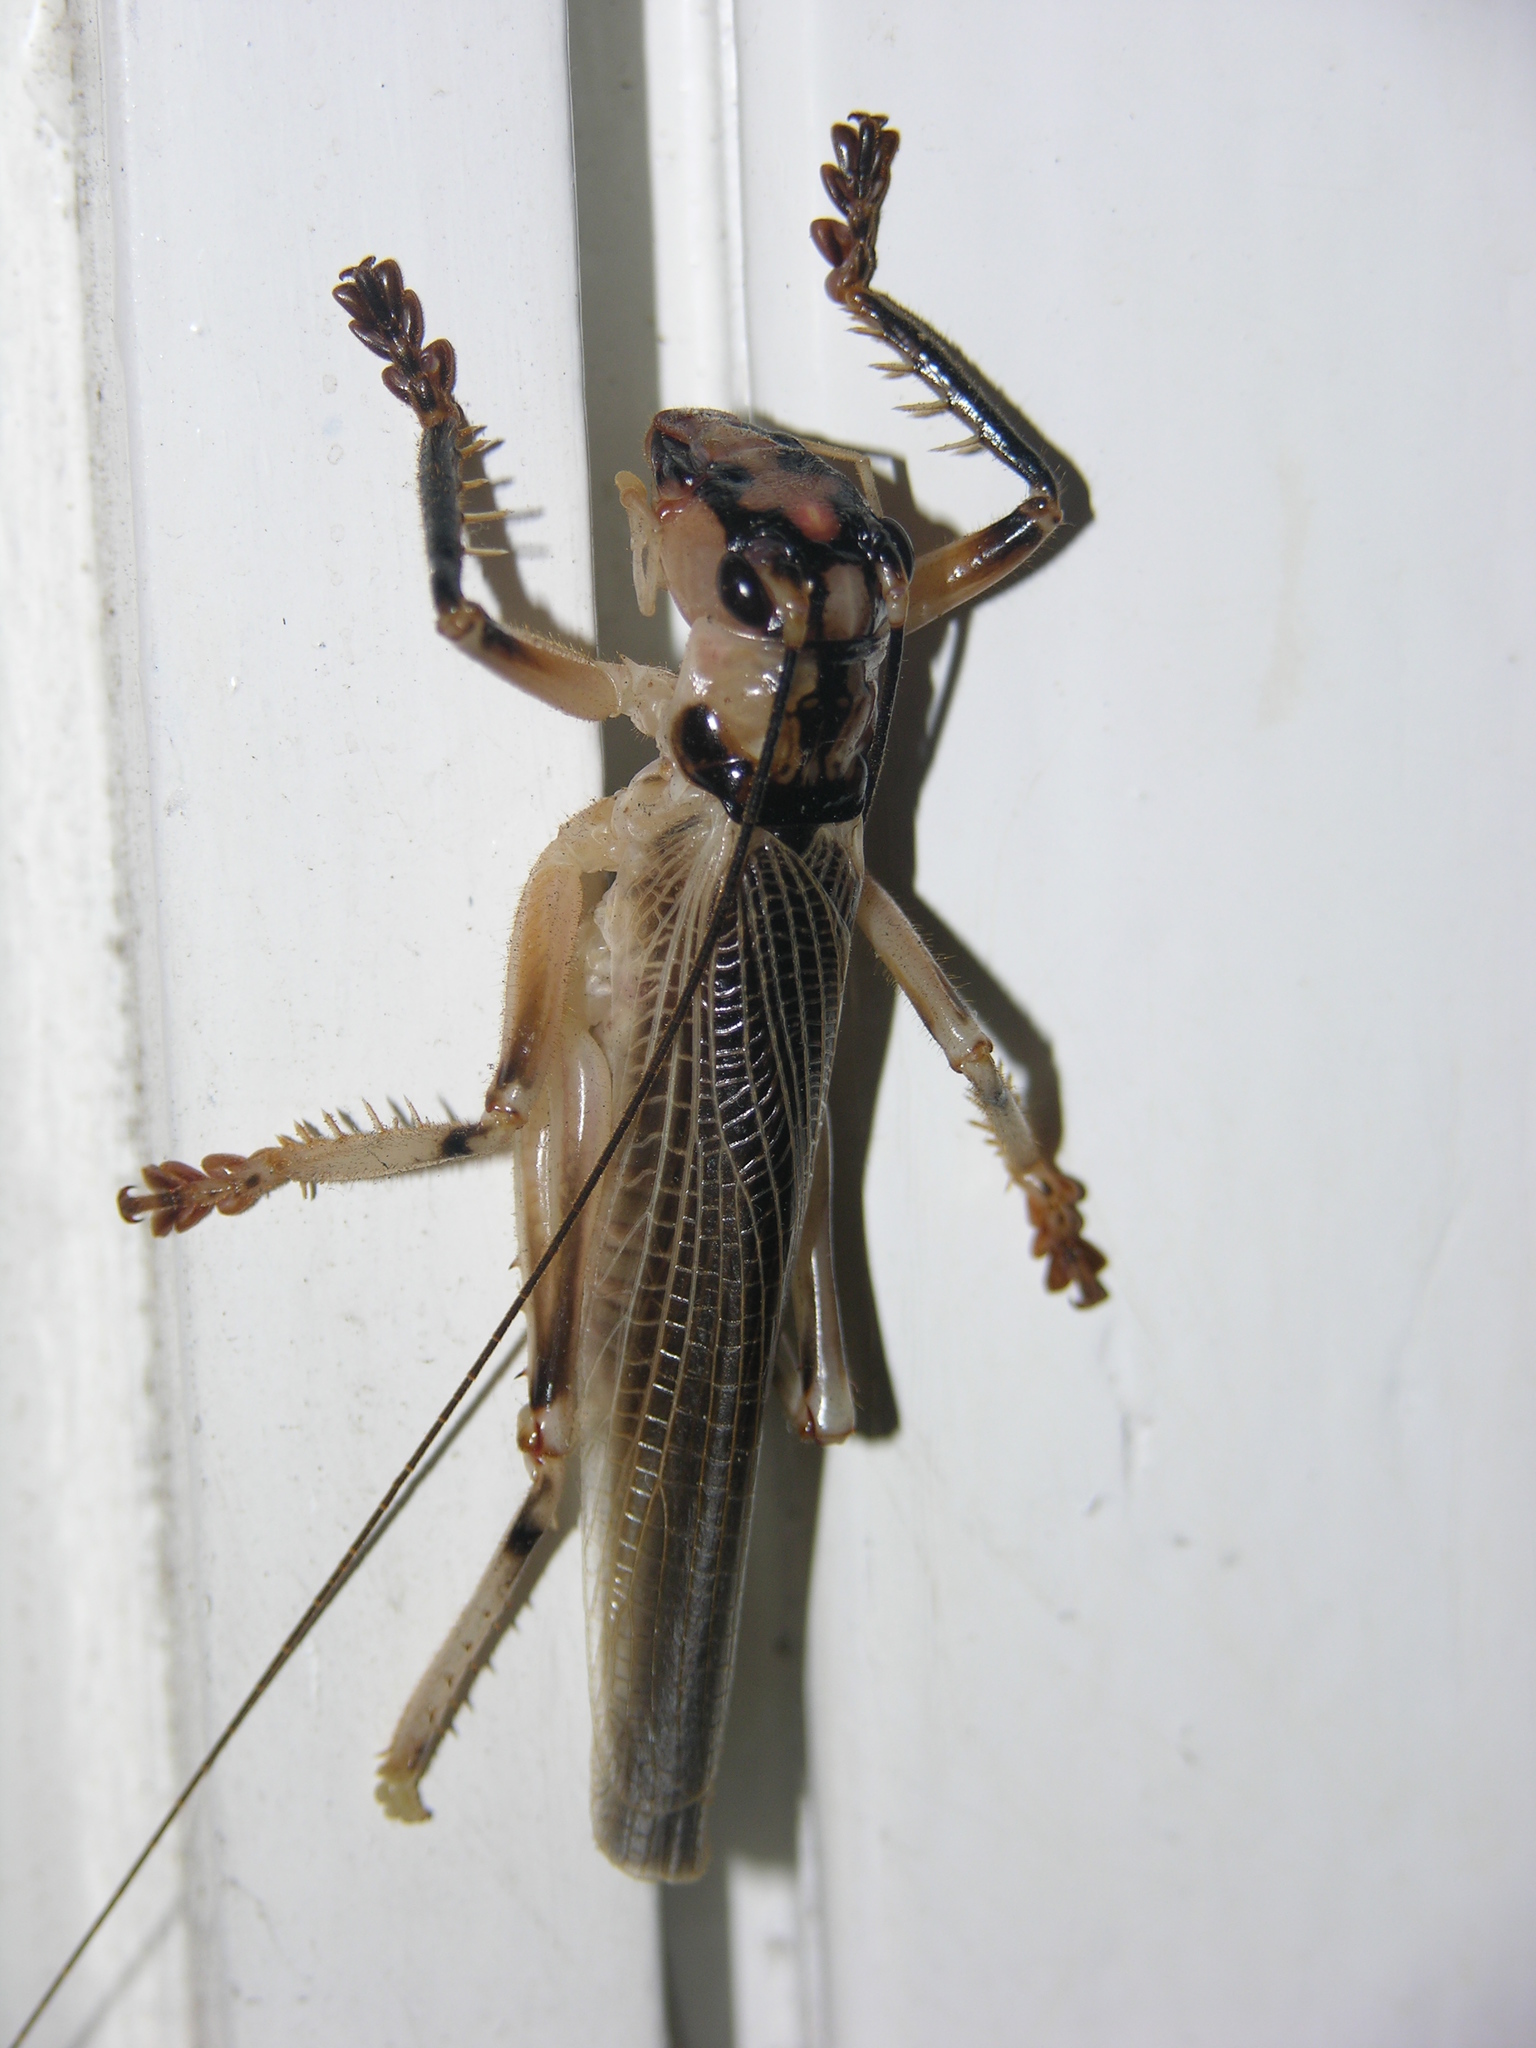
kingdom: Animalia
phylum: Arthropoda
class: Insecta
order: Orthoptera
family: Gryllacrididae
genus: Paragryllacris
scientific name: Paragryllacris combusta
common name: Striped raspy cricket
